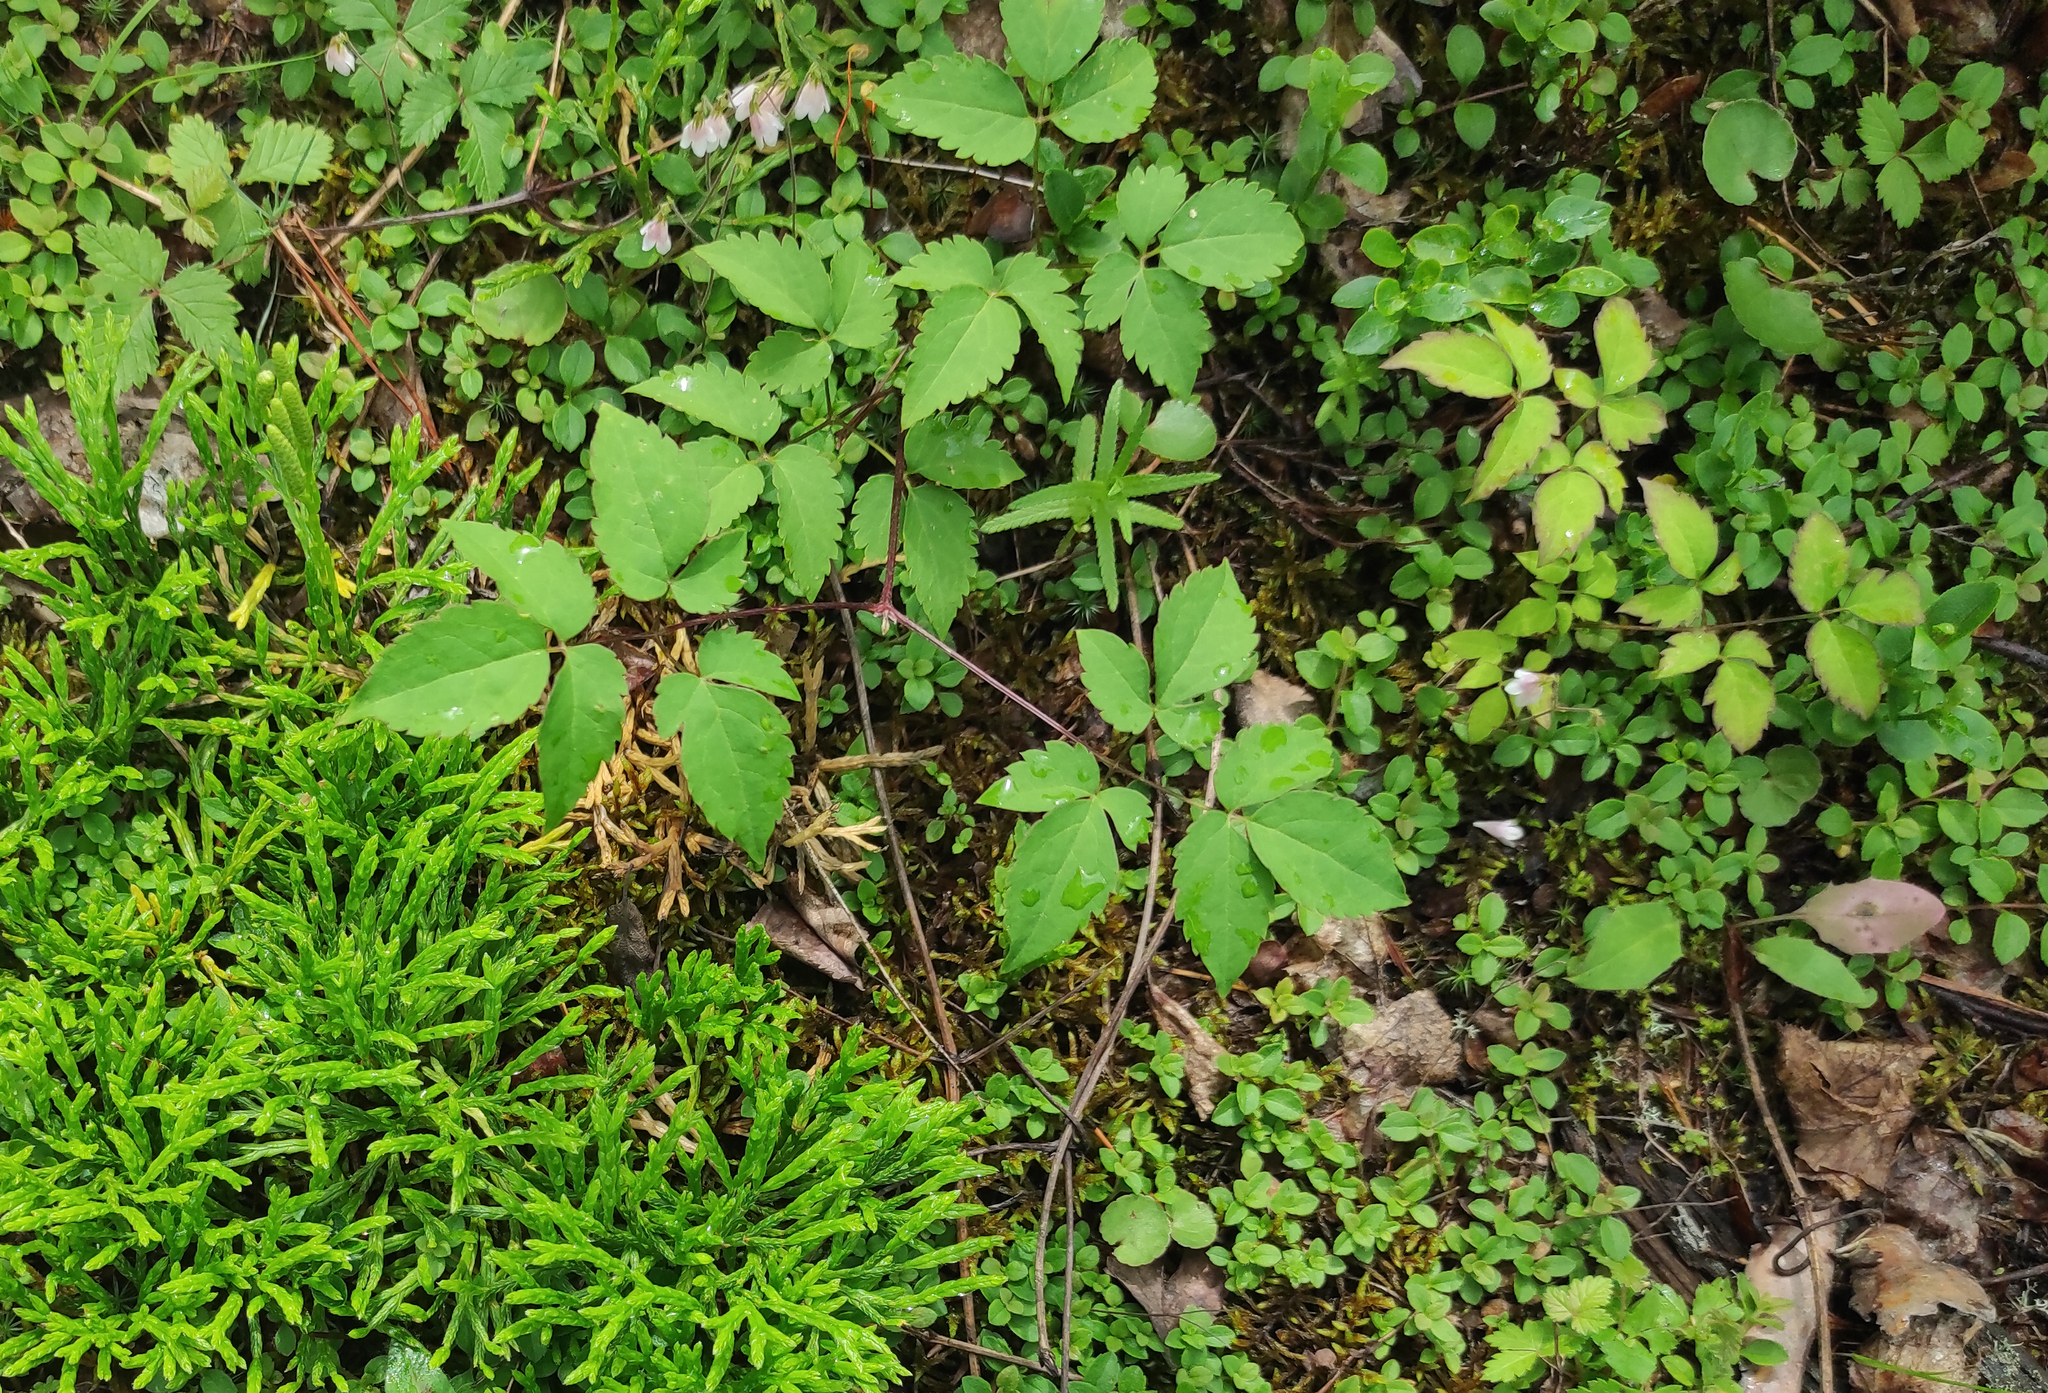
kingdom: Plantae
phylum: Tracheophyta
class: Magnoliopsida
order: Ranunculales
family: Ranunculaceae
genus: Clematis
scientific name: Clematis alpina
